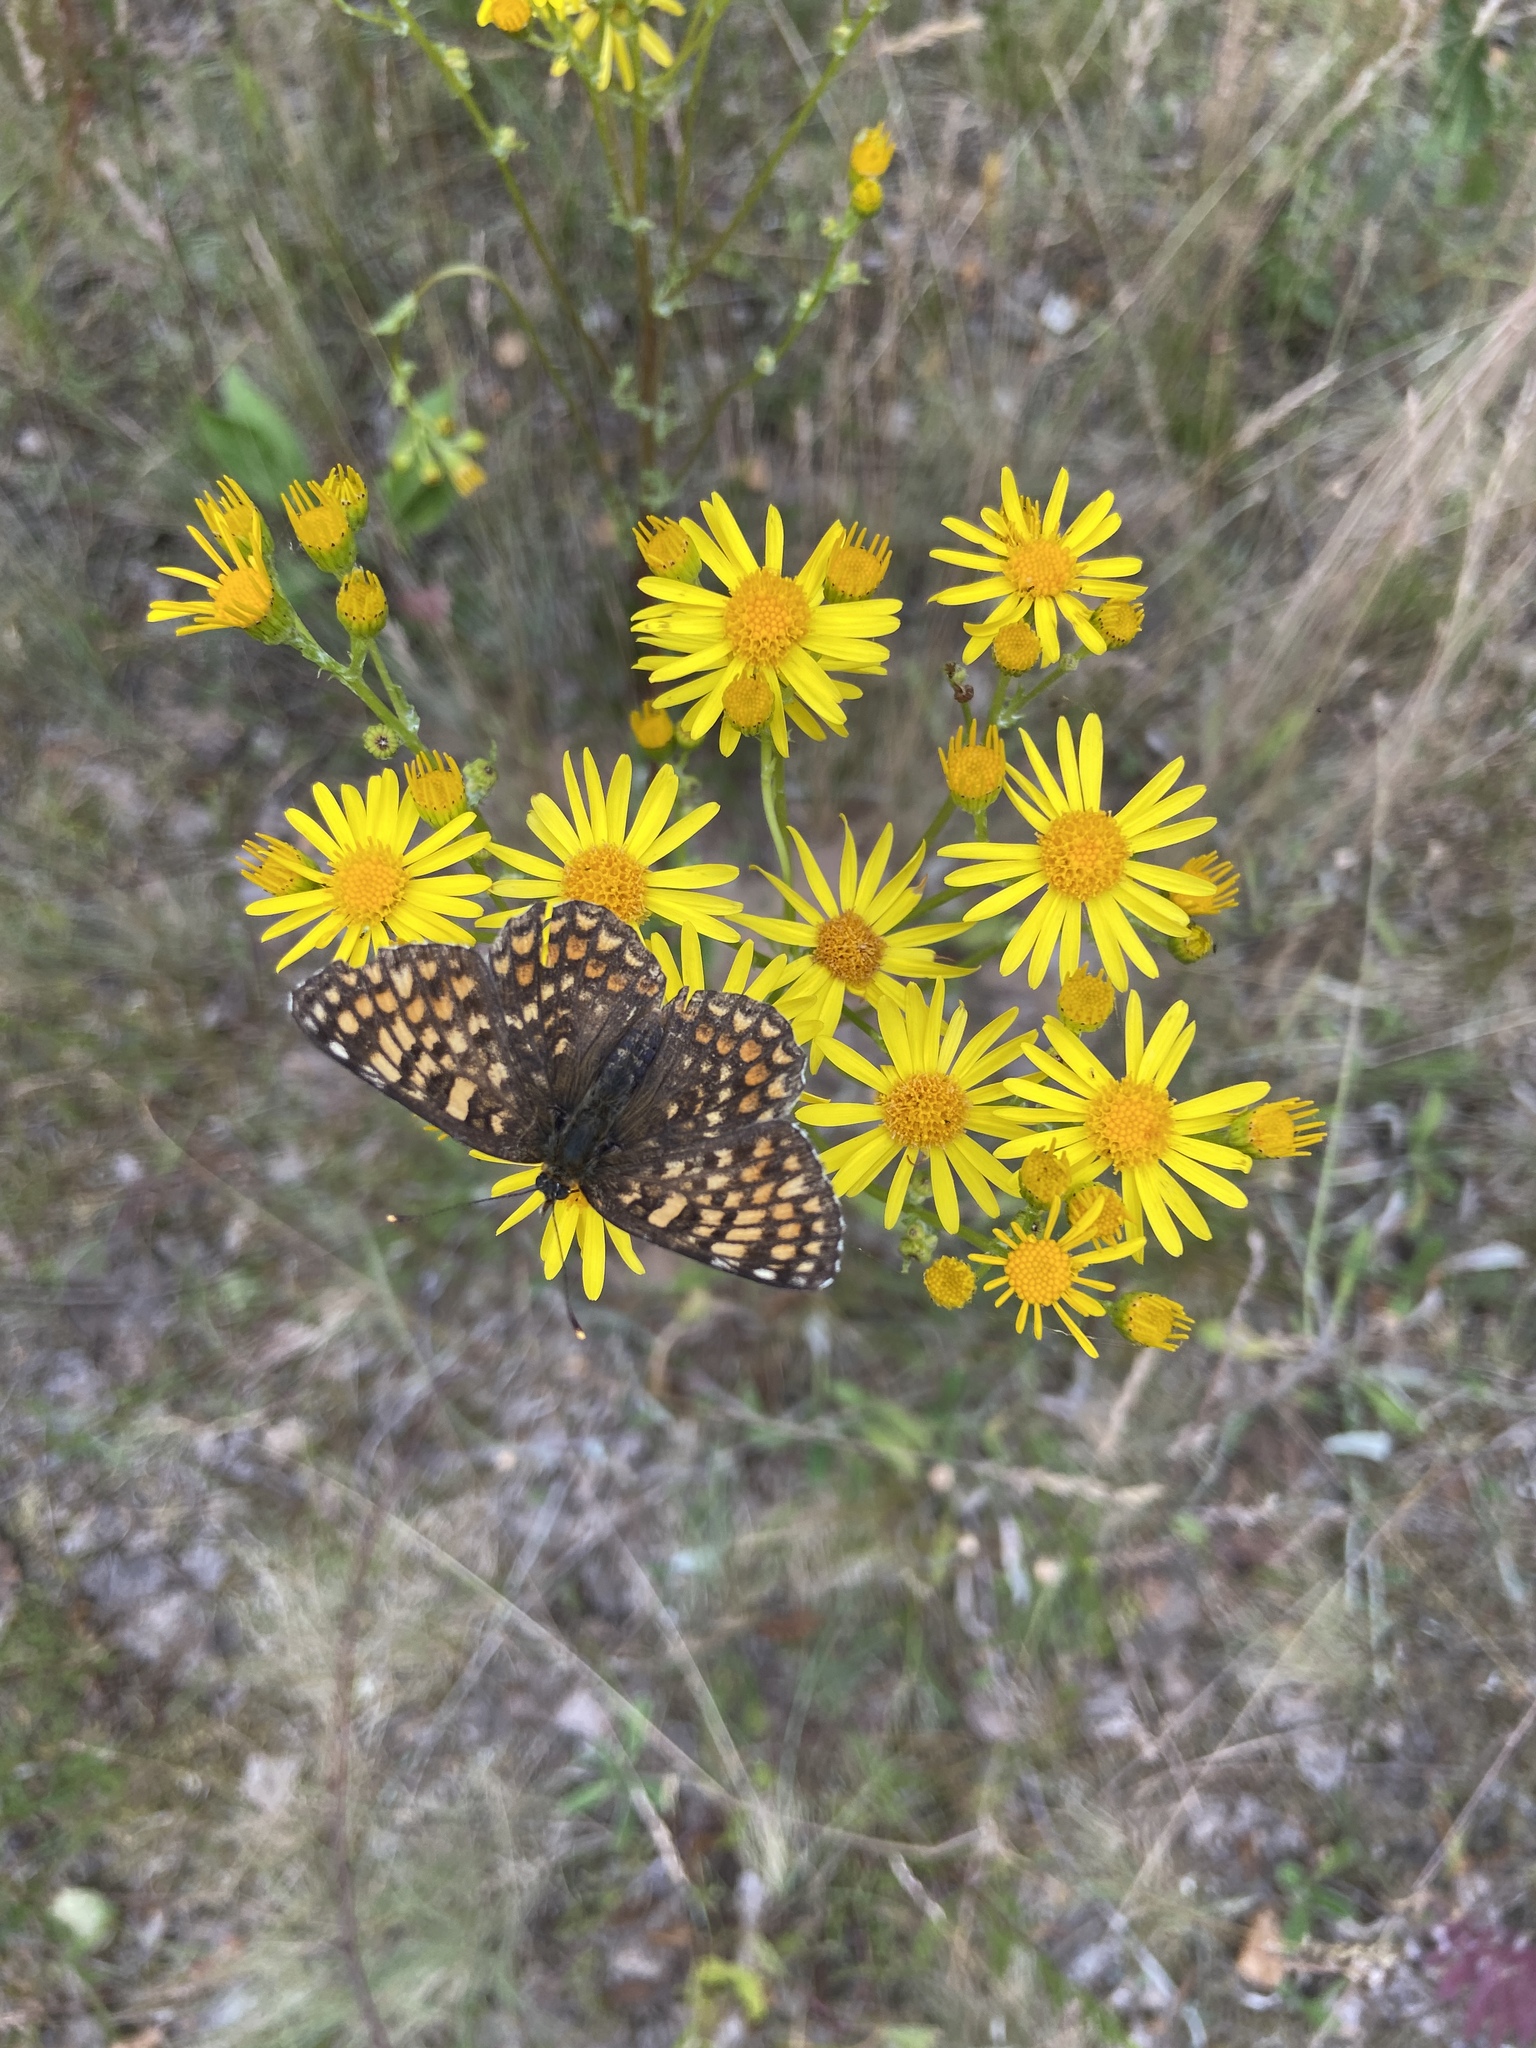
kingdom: Plantae
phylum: Tracheophyta
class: Magnoliopsida
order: Asterales
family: Asteraceae
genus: Jacobaea
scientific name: Jacobaea vulgaris
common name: Stinking willie
